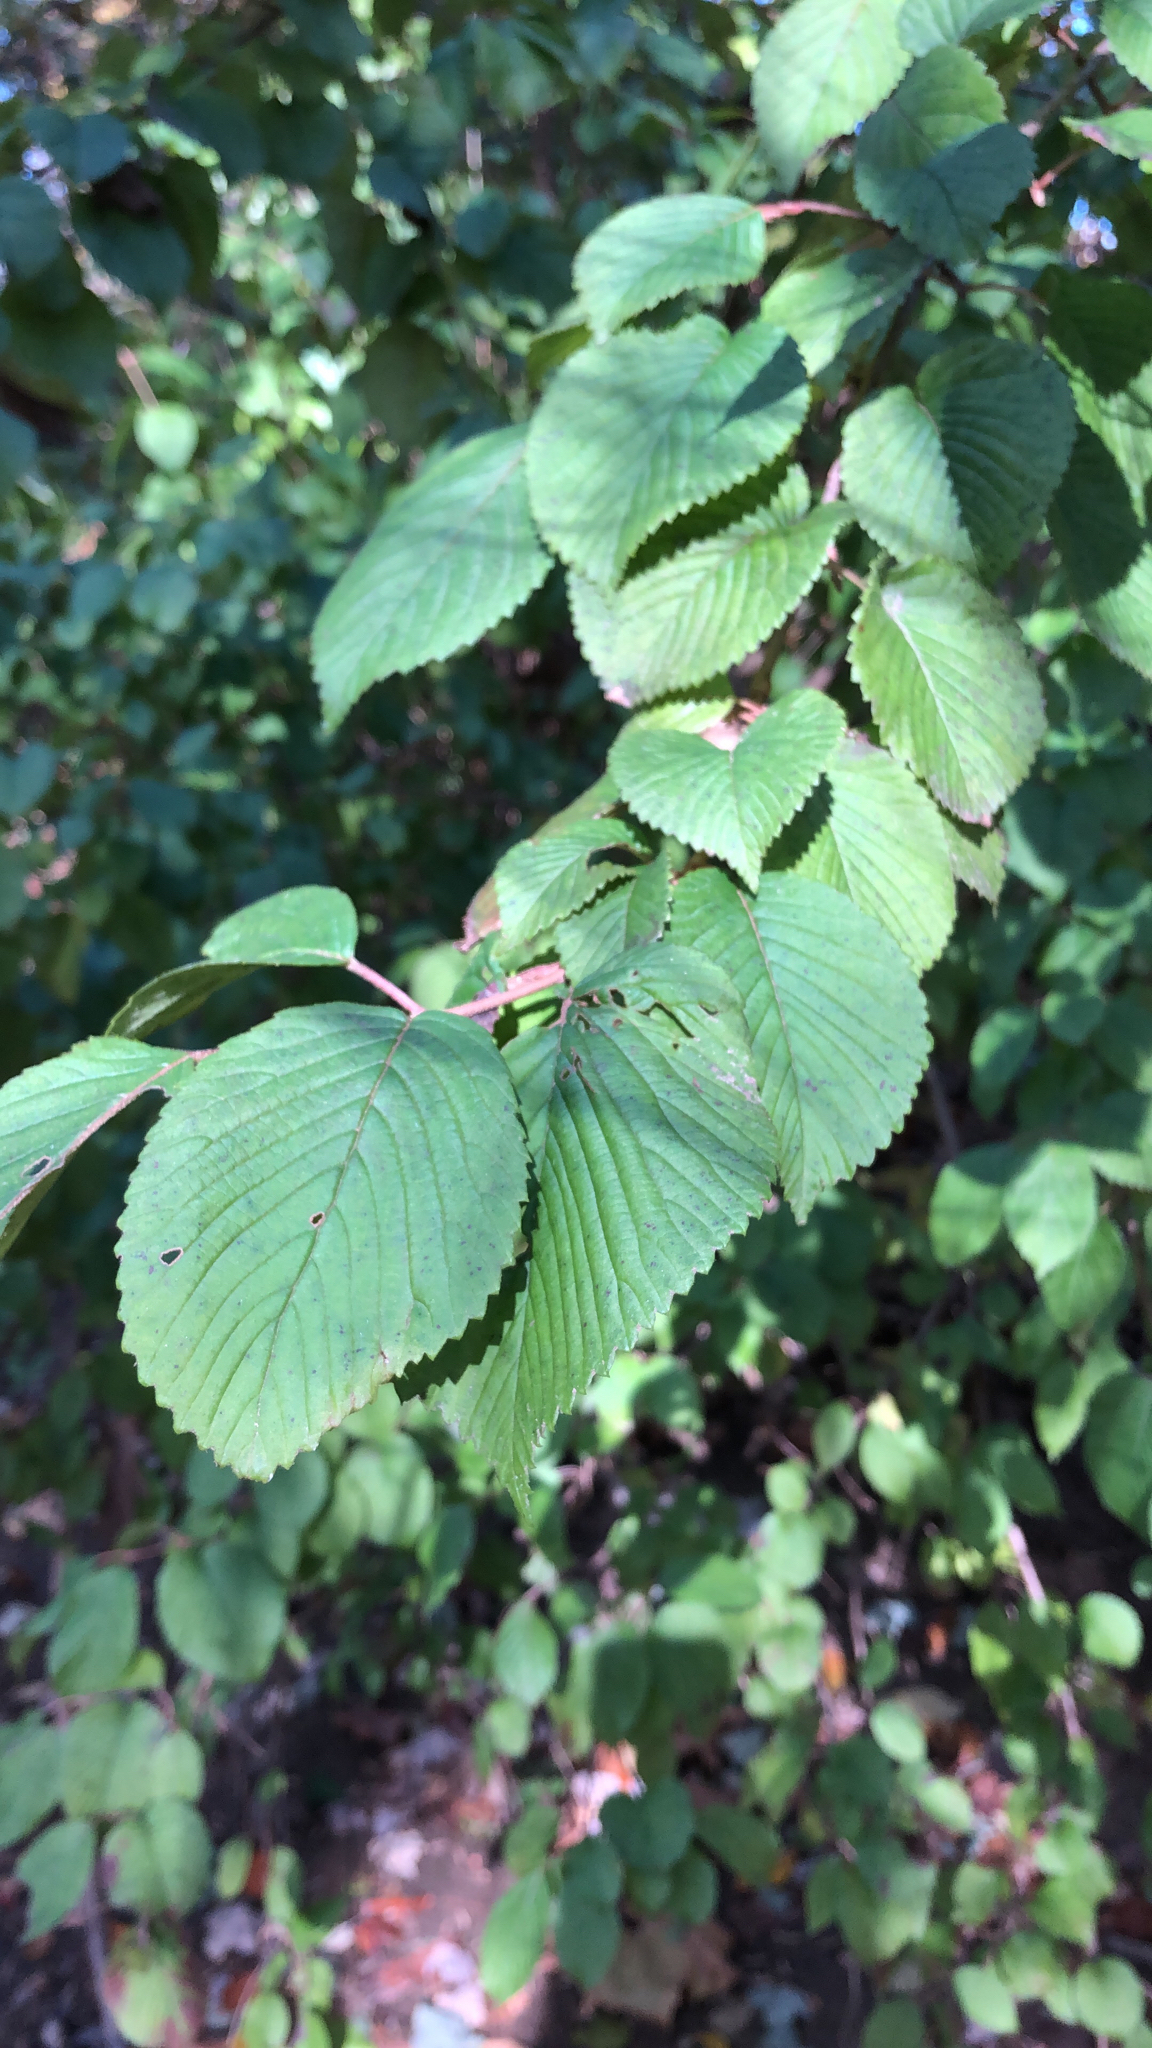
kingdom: Plantae
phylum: Tracheophyta
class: Magnoliopsida
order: Dipsacales
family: Viburnaceae
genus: Viburnum
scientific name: Viburnum plicatum
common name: Japanese snowball
